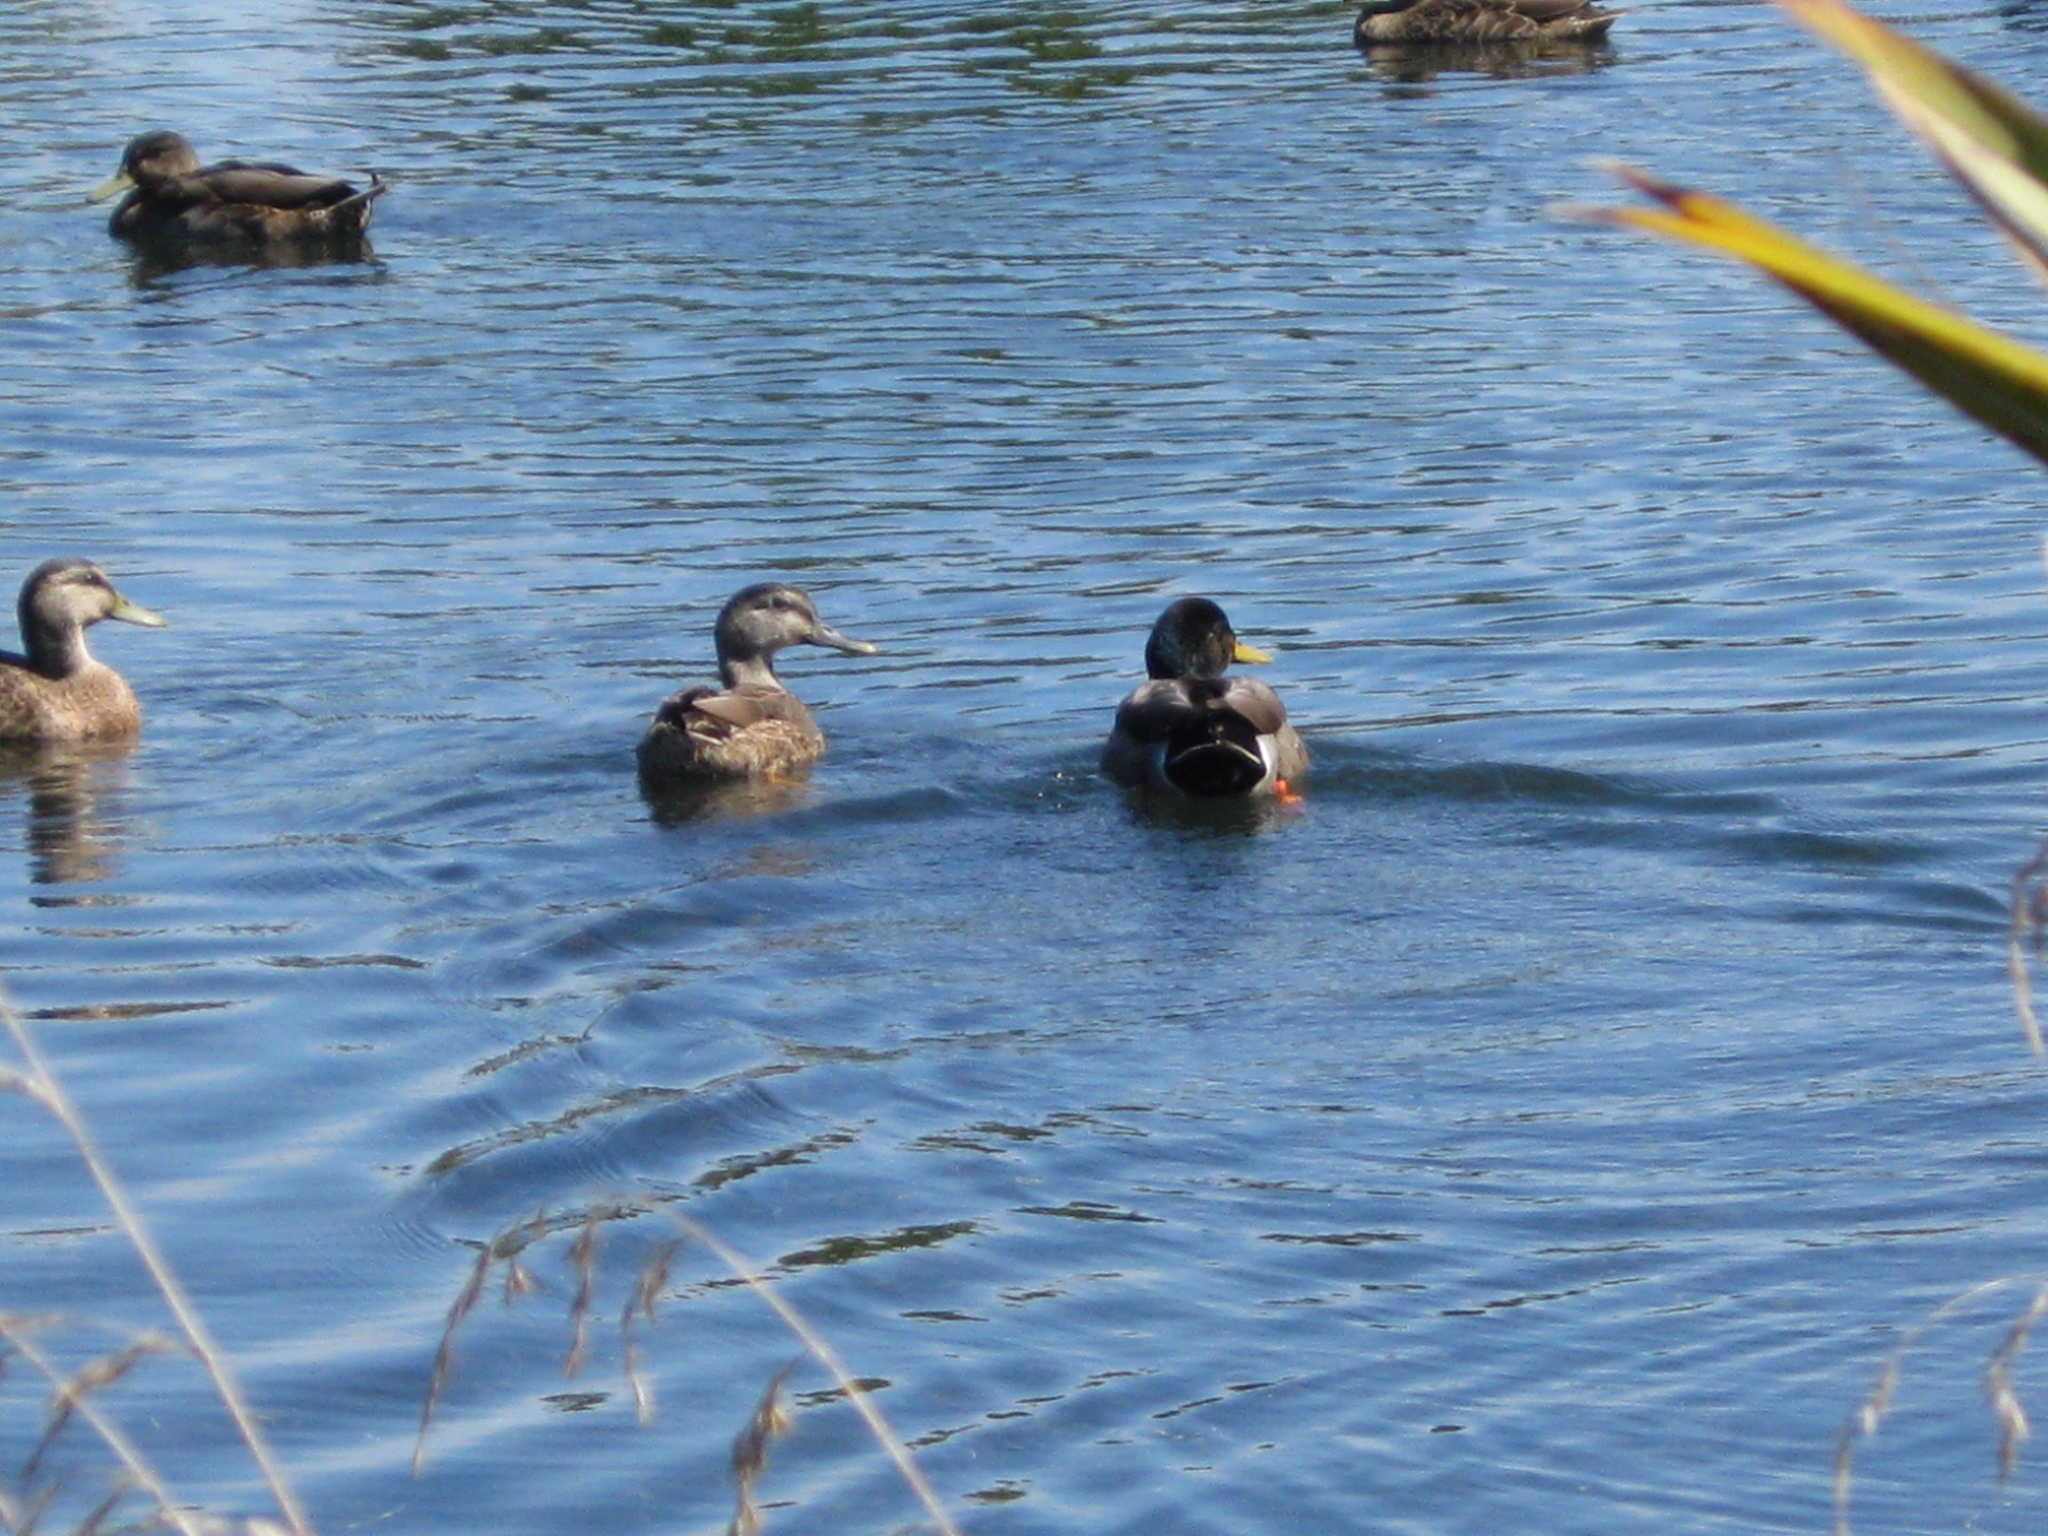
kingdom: Animalia
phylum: Chordata
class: Aves
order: Anseriformes
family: Anatidae
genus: Anas
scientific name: Anas platyrhynchos
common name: Mallard
